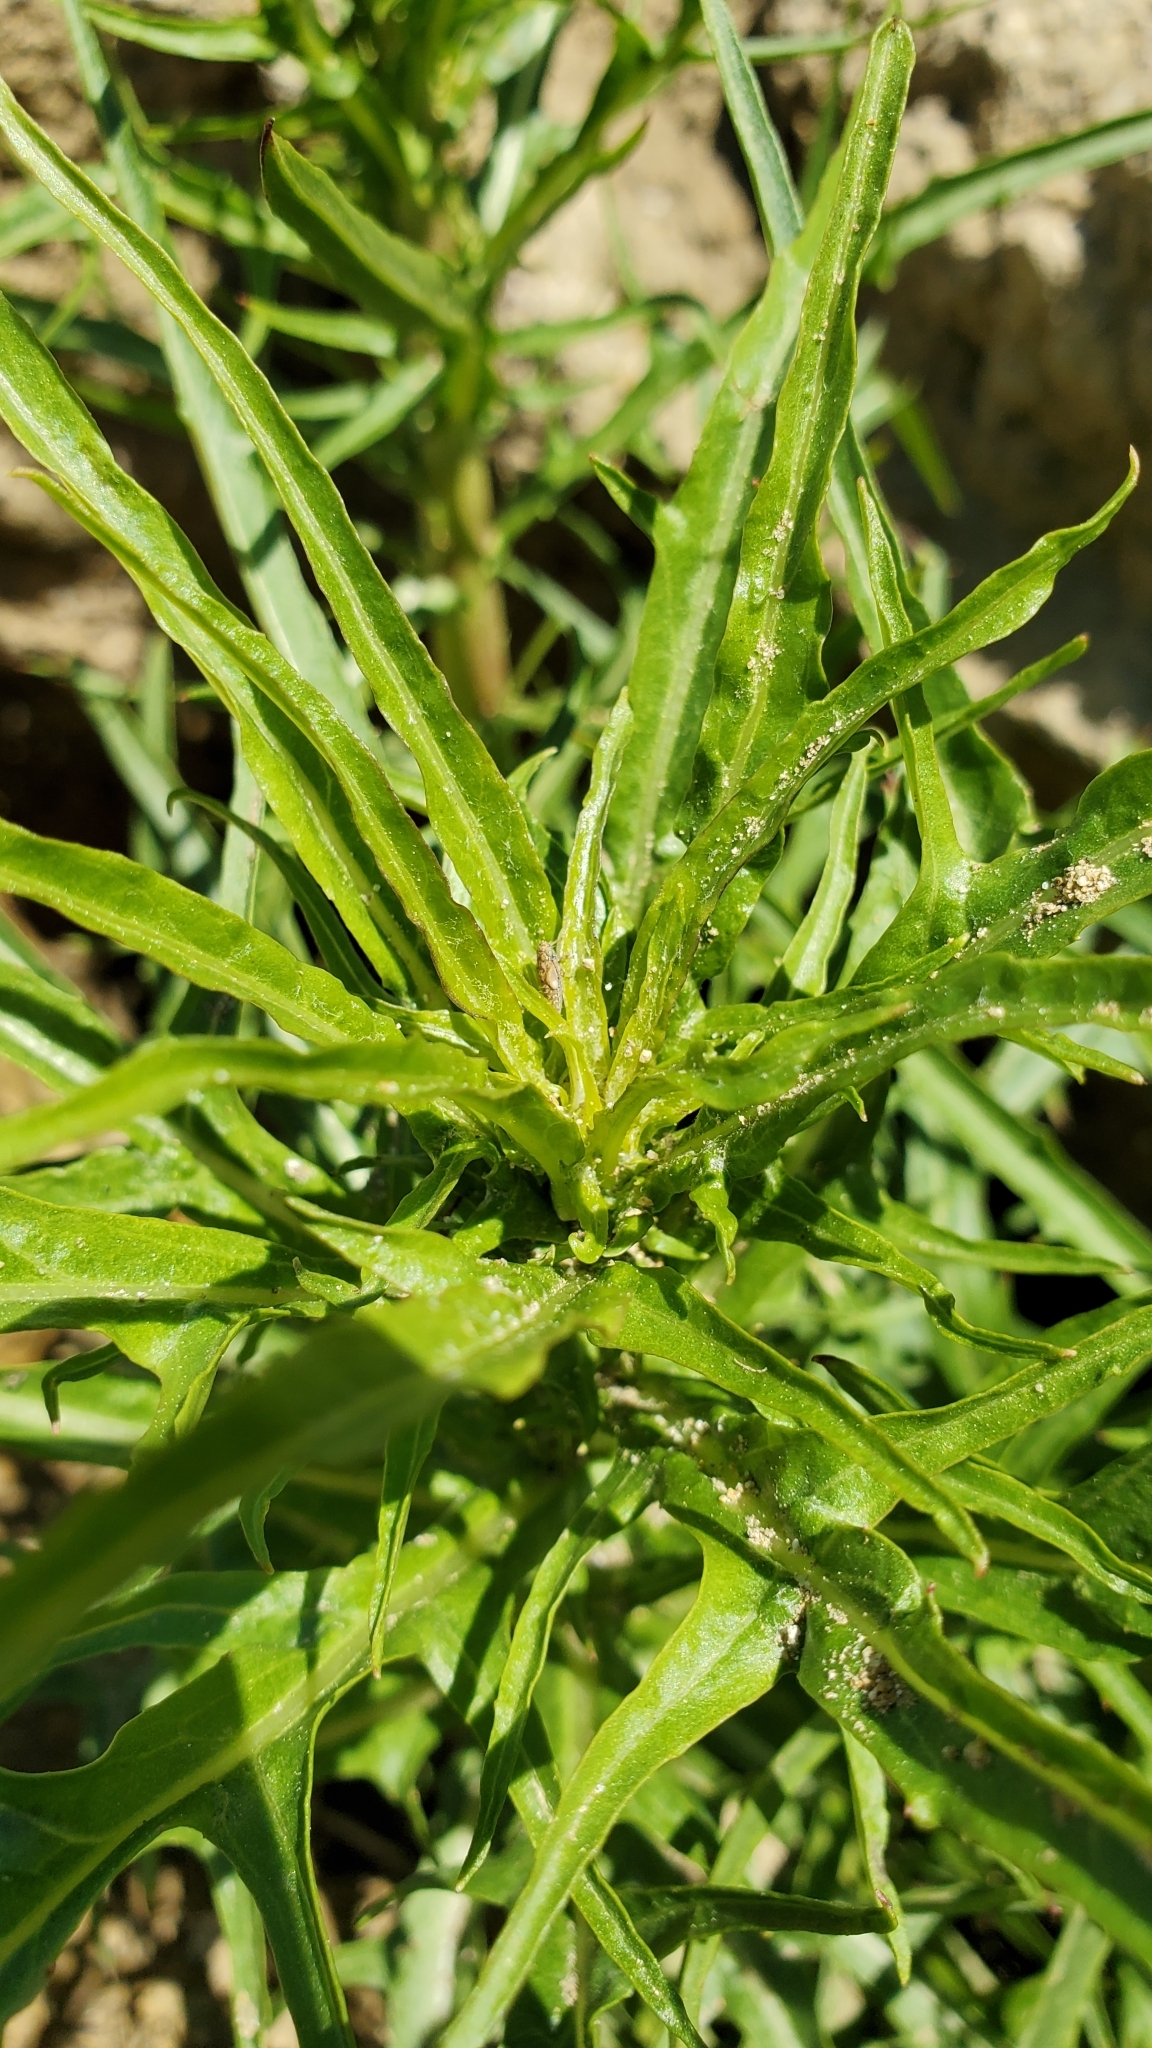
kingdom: Plantae
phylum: Tracheophyta
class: Magnoliopsida
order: Asterales
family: Asteraceae
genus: Malacothrix
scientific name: Malacothrix saxatilis
